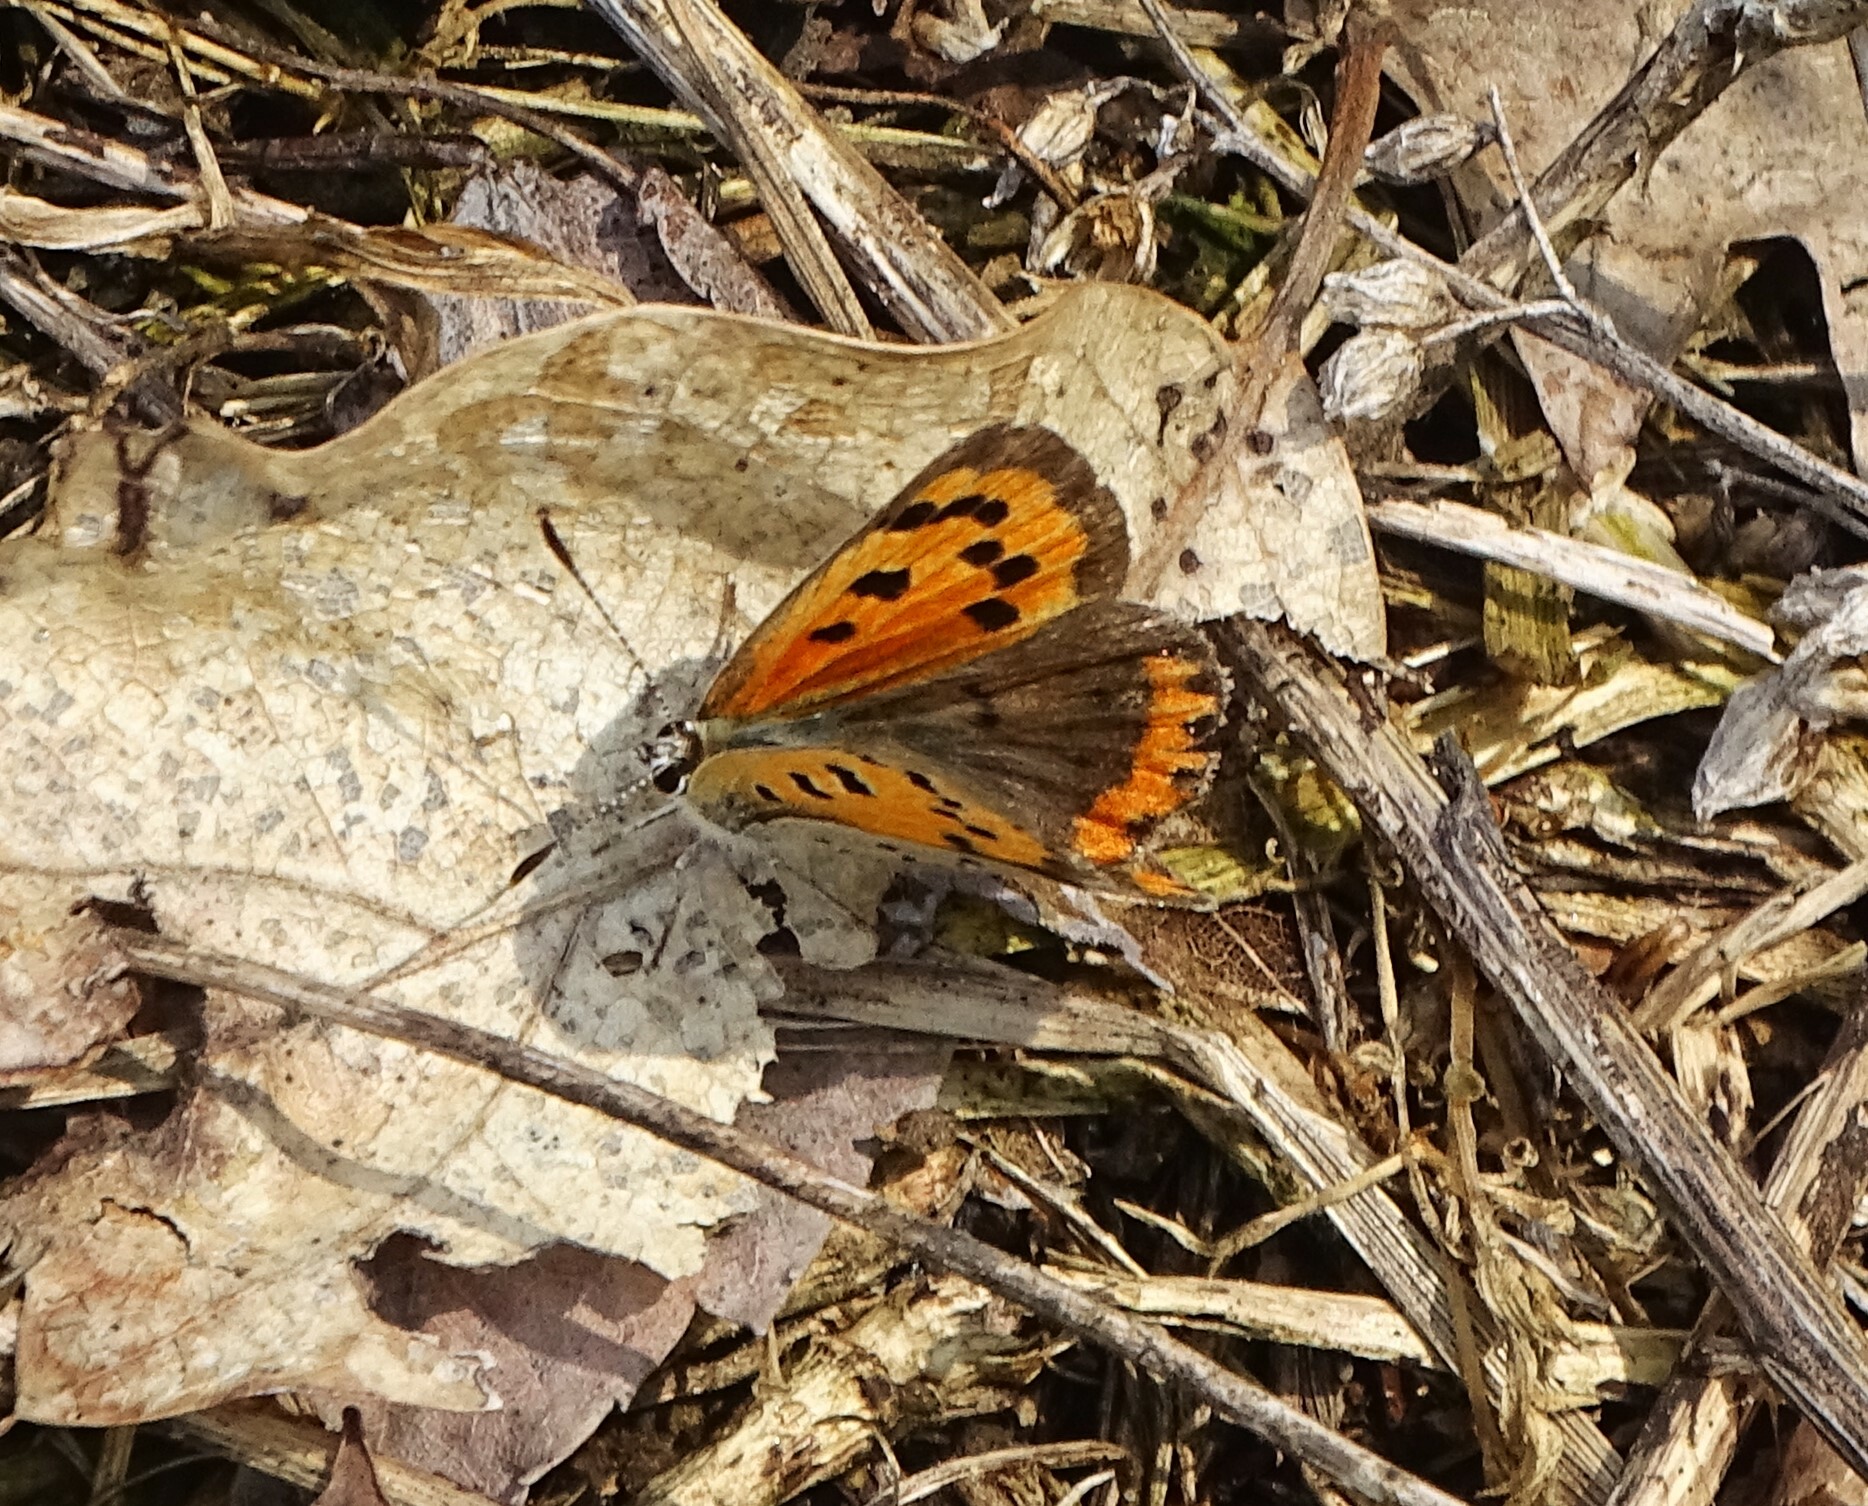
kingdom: Animalia
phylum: Arthropoda
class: Insecta
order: Lepidoptera
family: Lycaenidae
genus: Lycaena
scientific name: Lycaena hypophlaeas
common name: American copper
